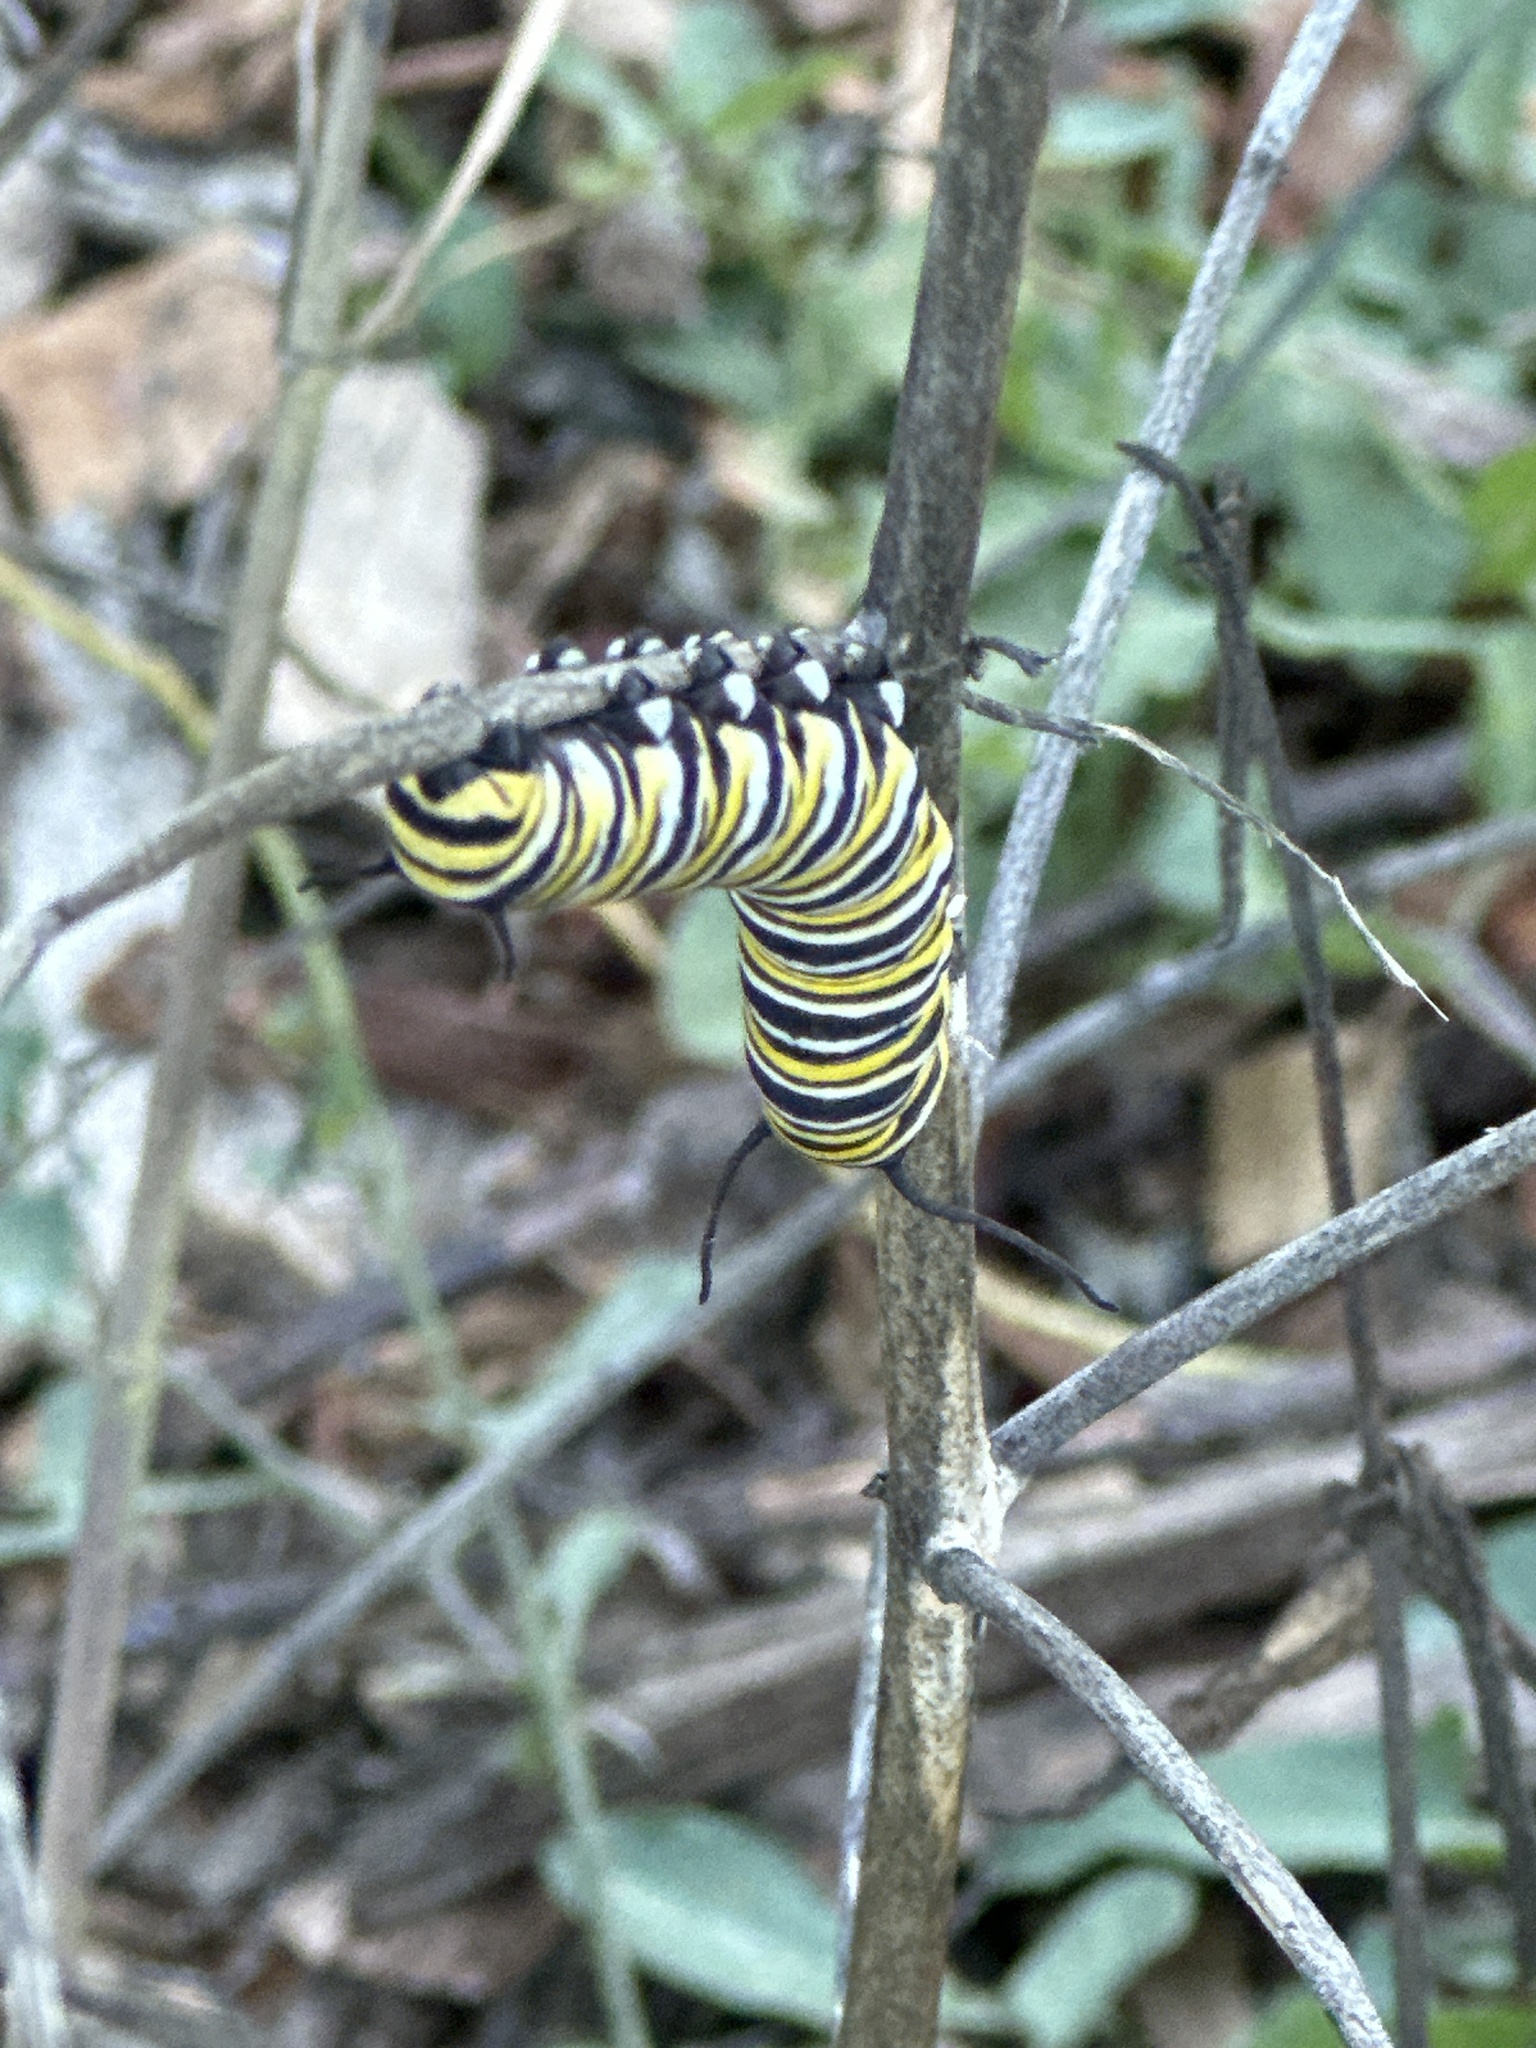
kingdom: Animalia
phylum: Arthropoda
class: Insecta
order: Lepidoptera
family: Nymphalidae
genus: Danaus
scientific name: Danaus plexippus
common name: Monarch
